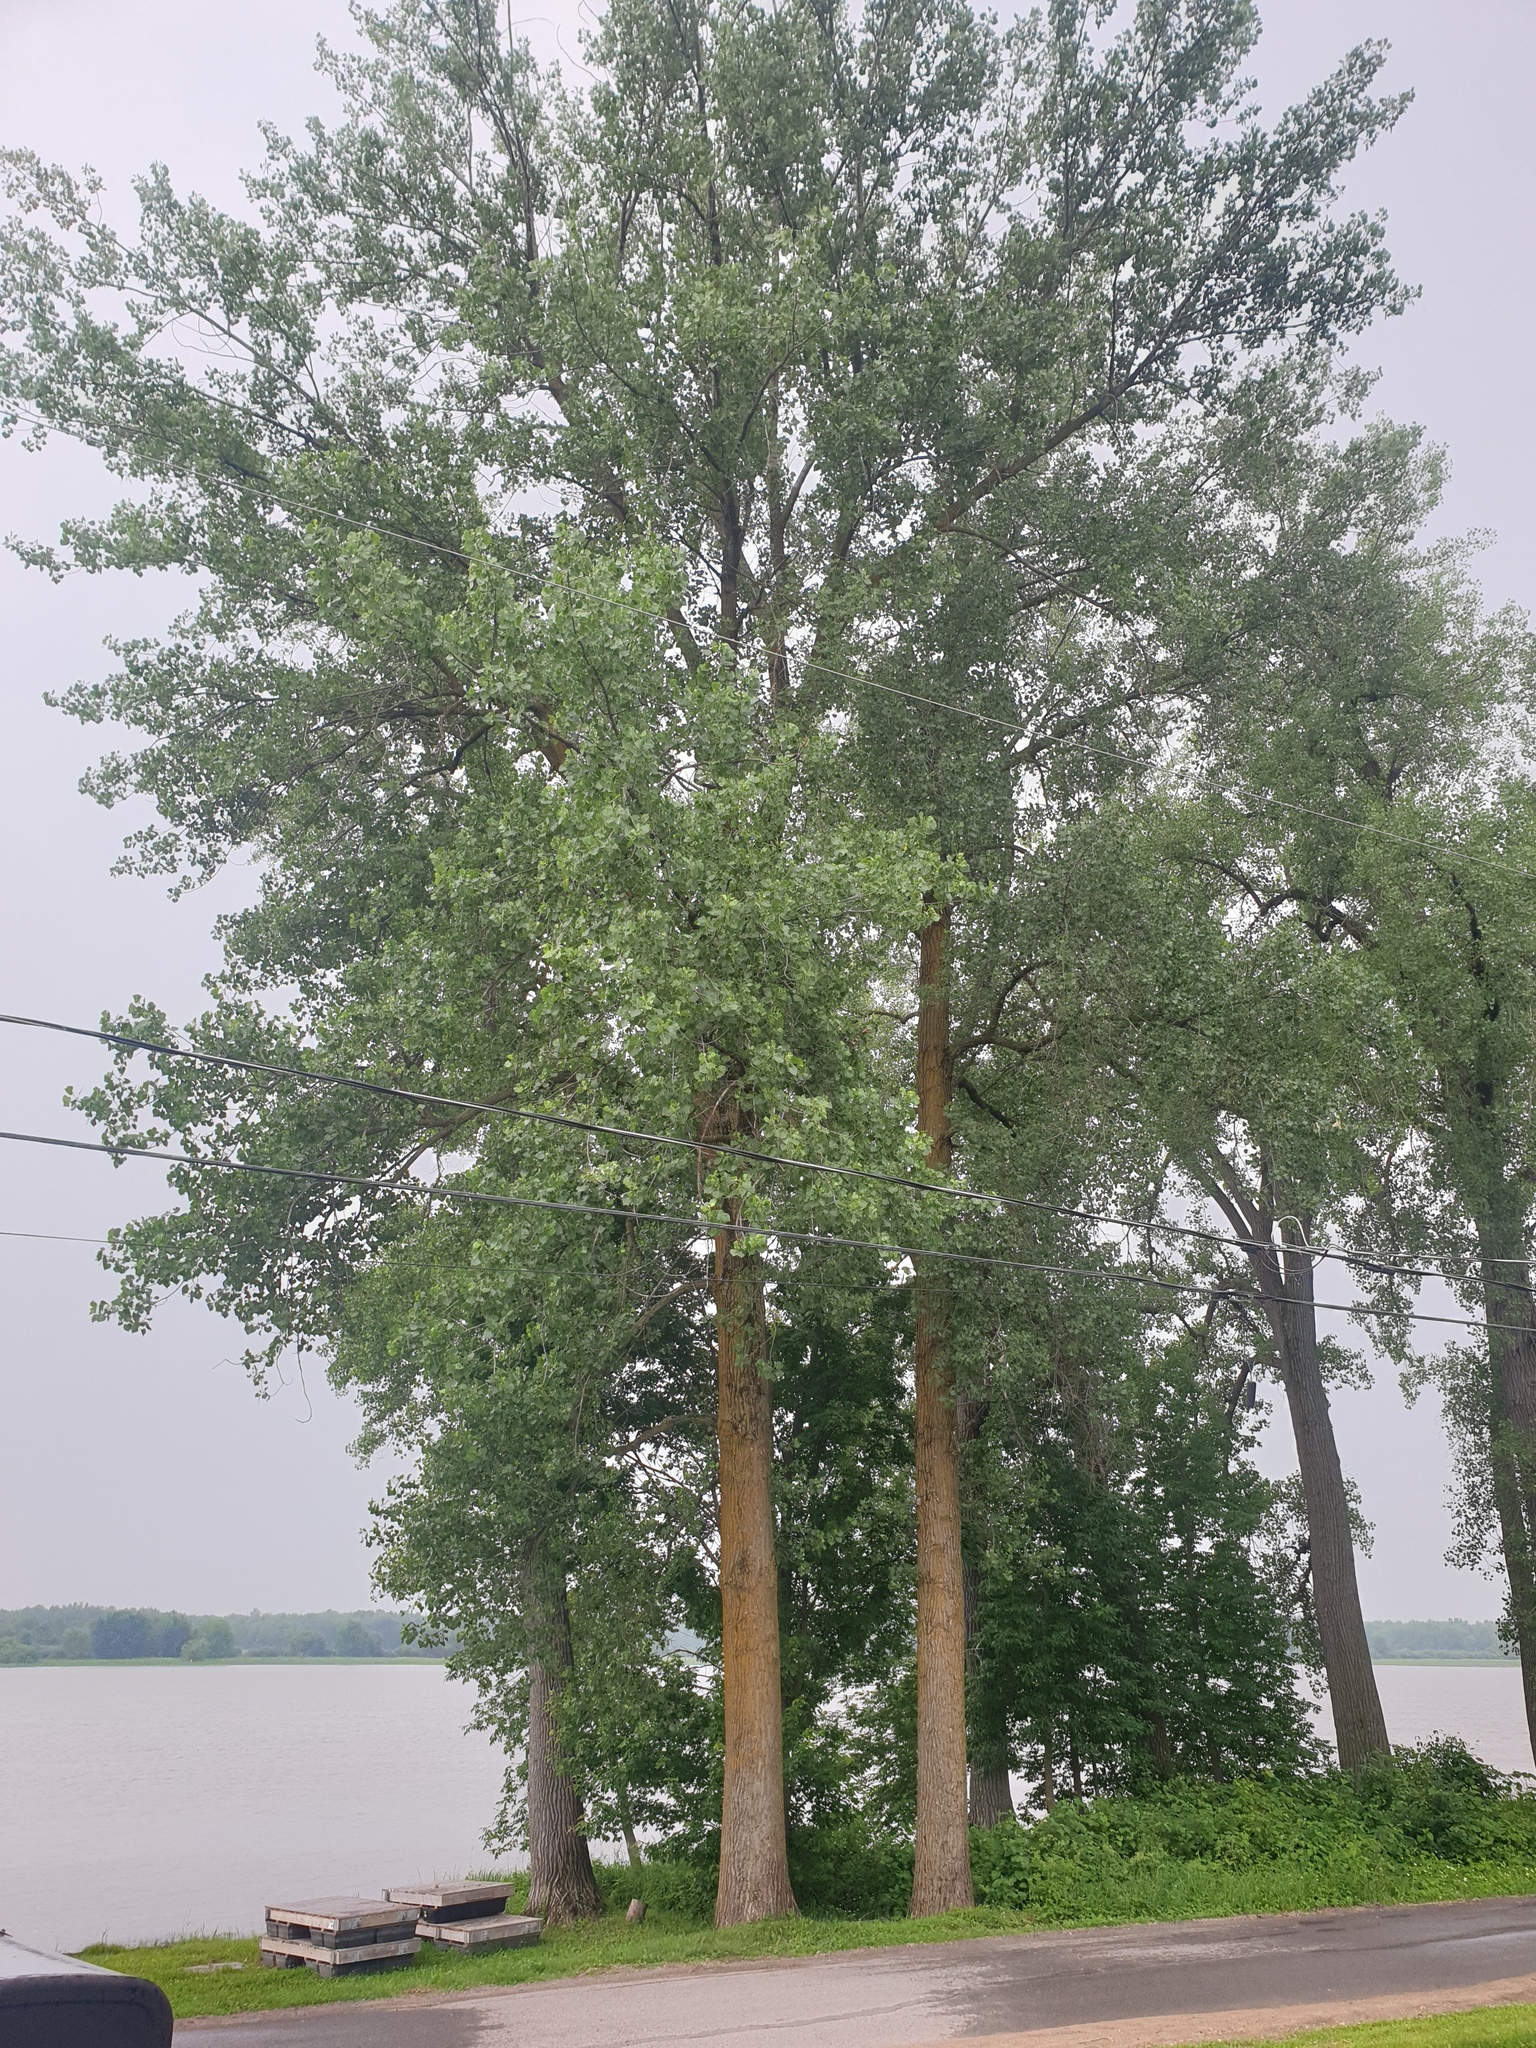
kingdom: Plantae
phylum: Tracheophyta
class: Magnoliopsida
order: Malpighiales
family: Salicaceae
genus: Populus
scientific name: Populus deltoides
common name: Eastern cottonwood
